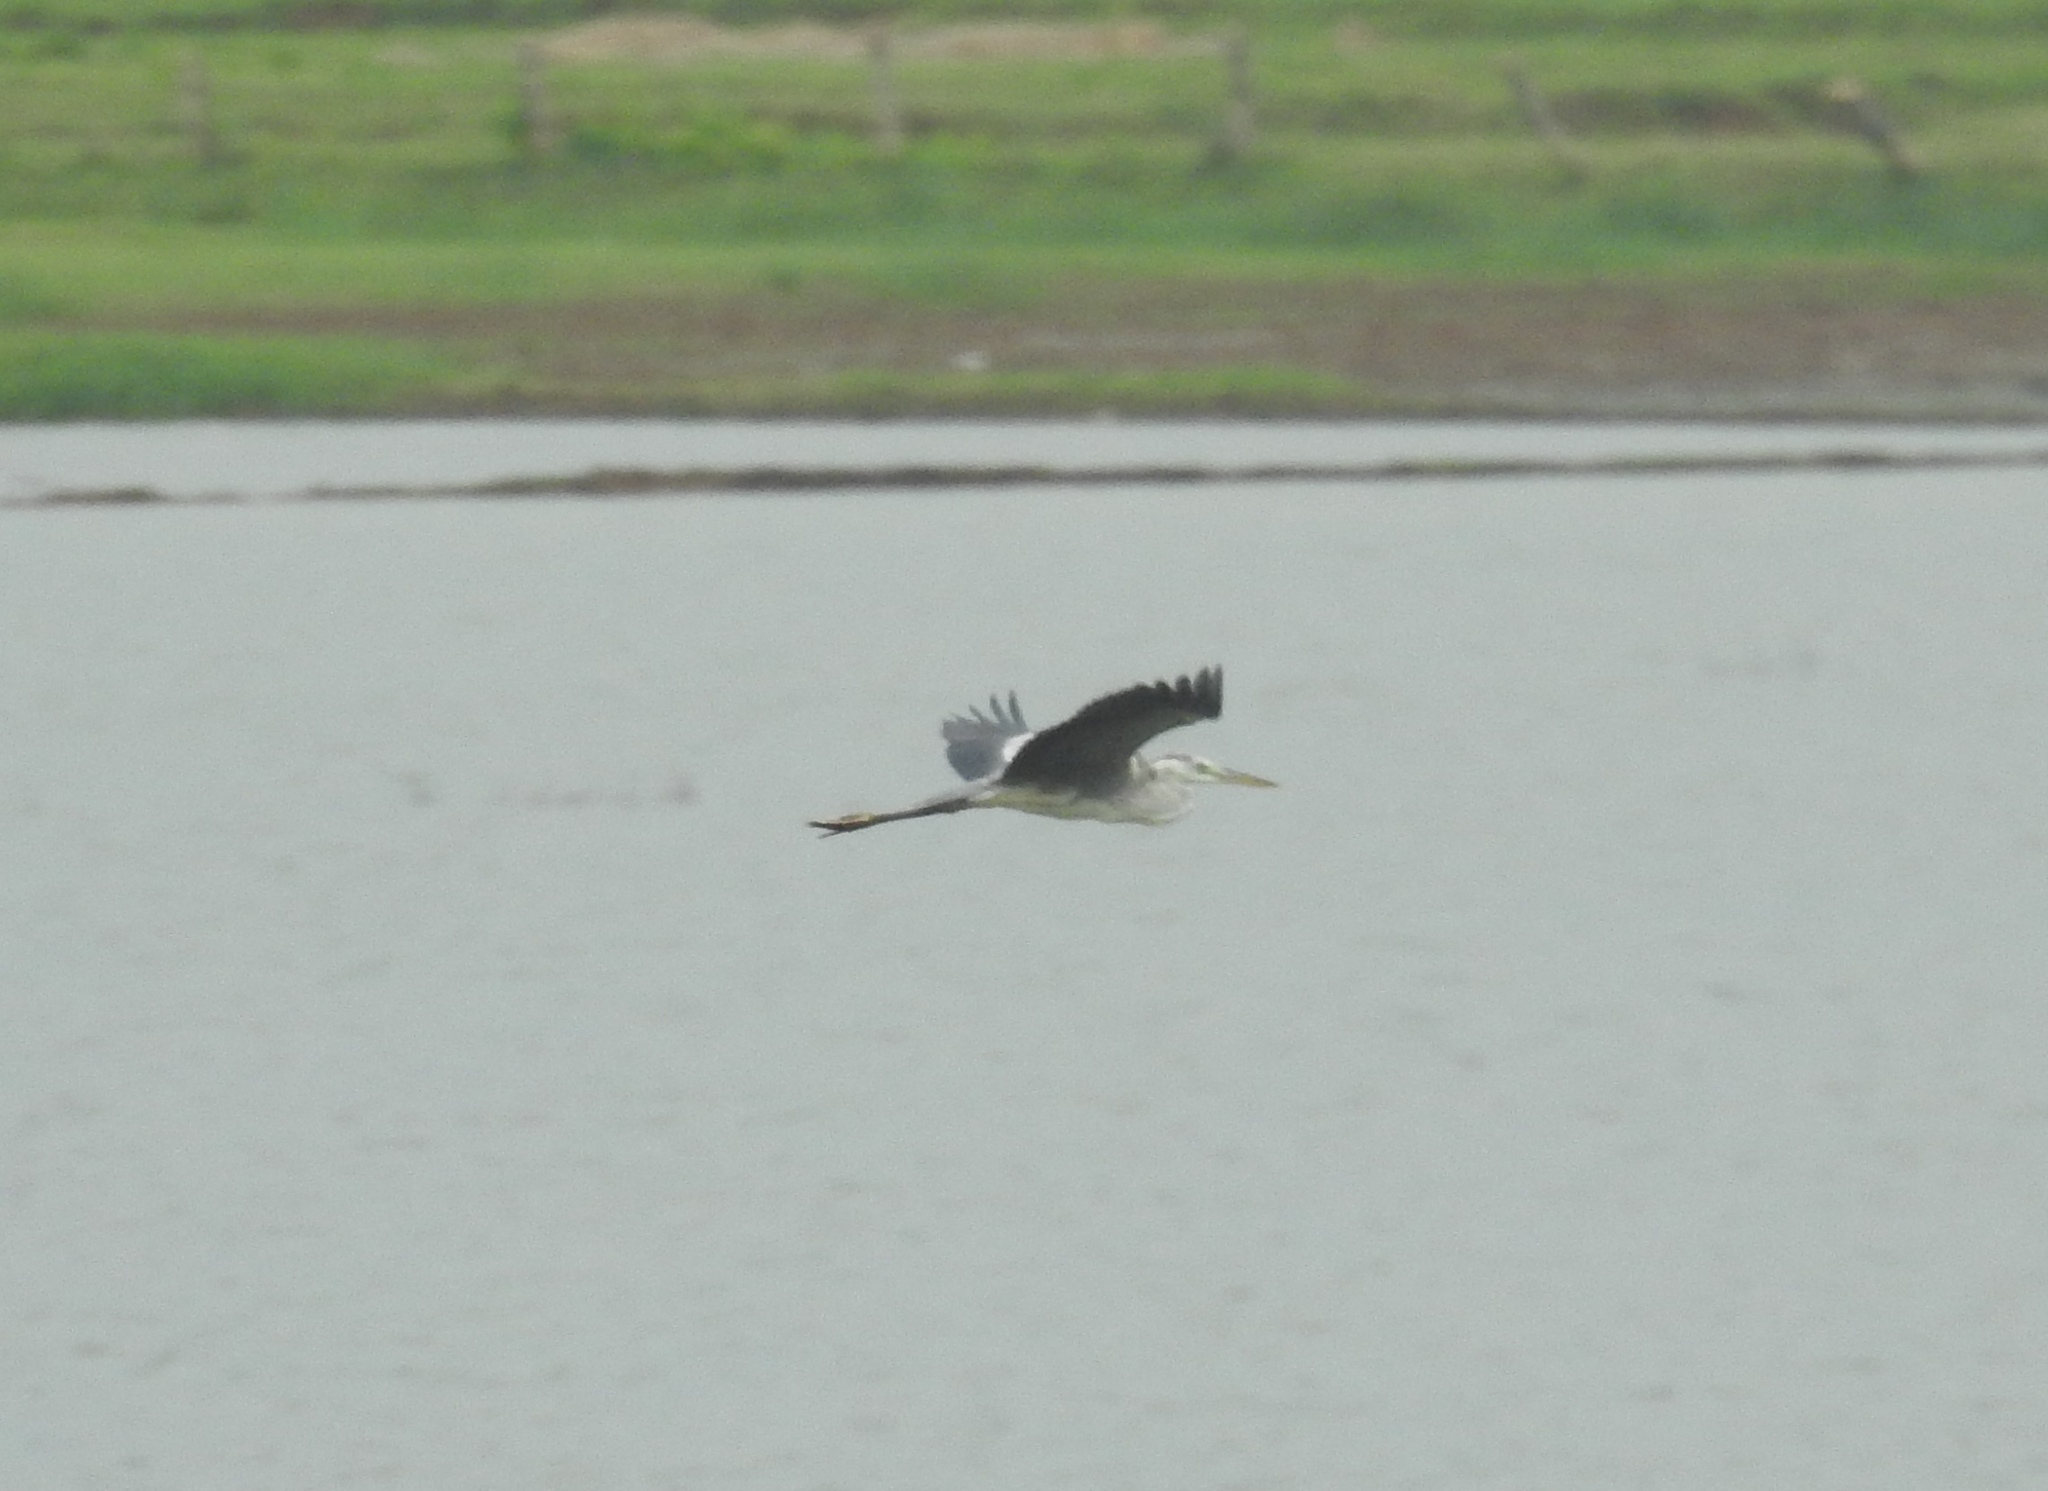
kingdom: Animalia
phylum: Chordata
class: Aves
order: Pelecaniformes
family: Ardeidae
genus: Ardea
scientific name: Ardea cinerea
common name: Grey heron
